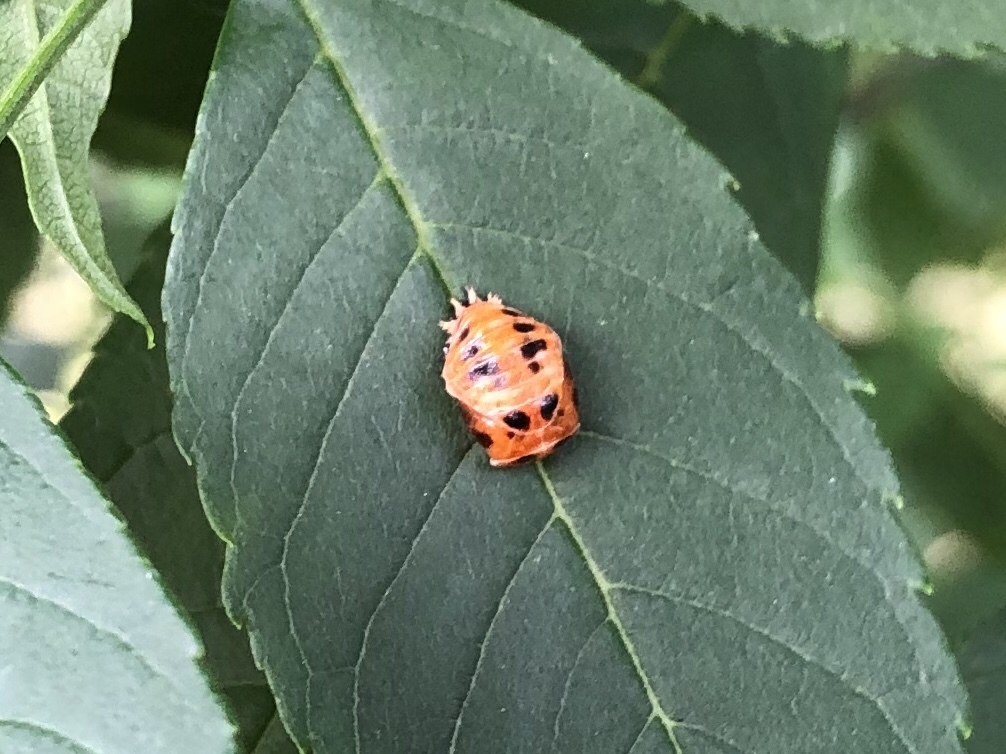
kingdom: Animalia
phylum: Arthropoda
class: Insecta
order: Coleoptera
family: Coccinellidae
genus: Harmonia
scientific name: Harmonia axyridis
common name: Harlequin ladybird
